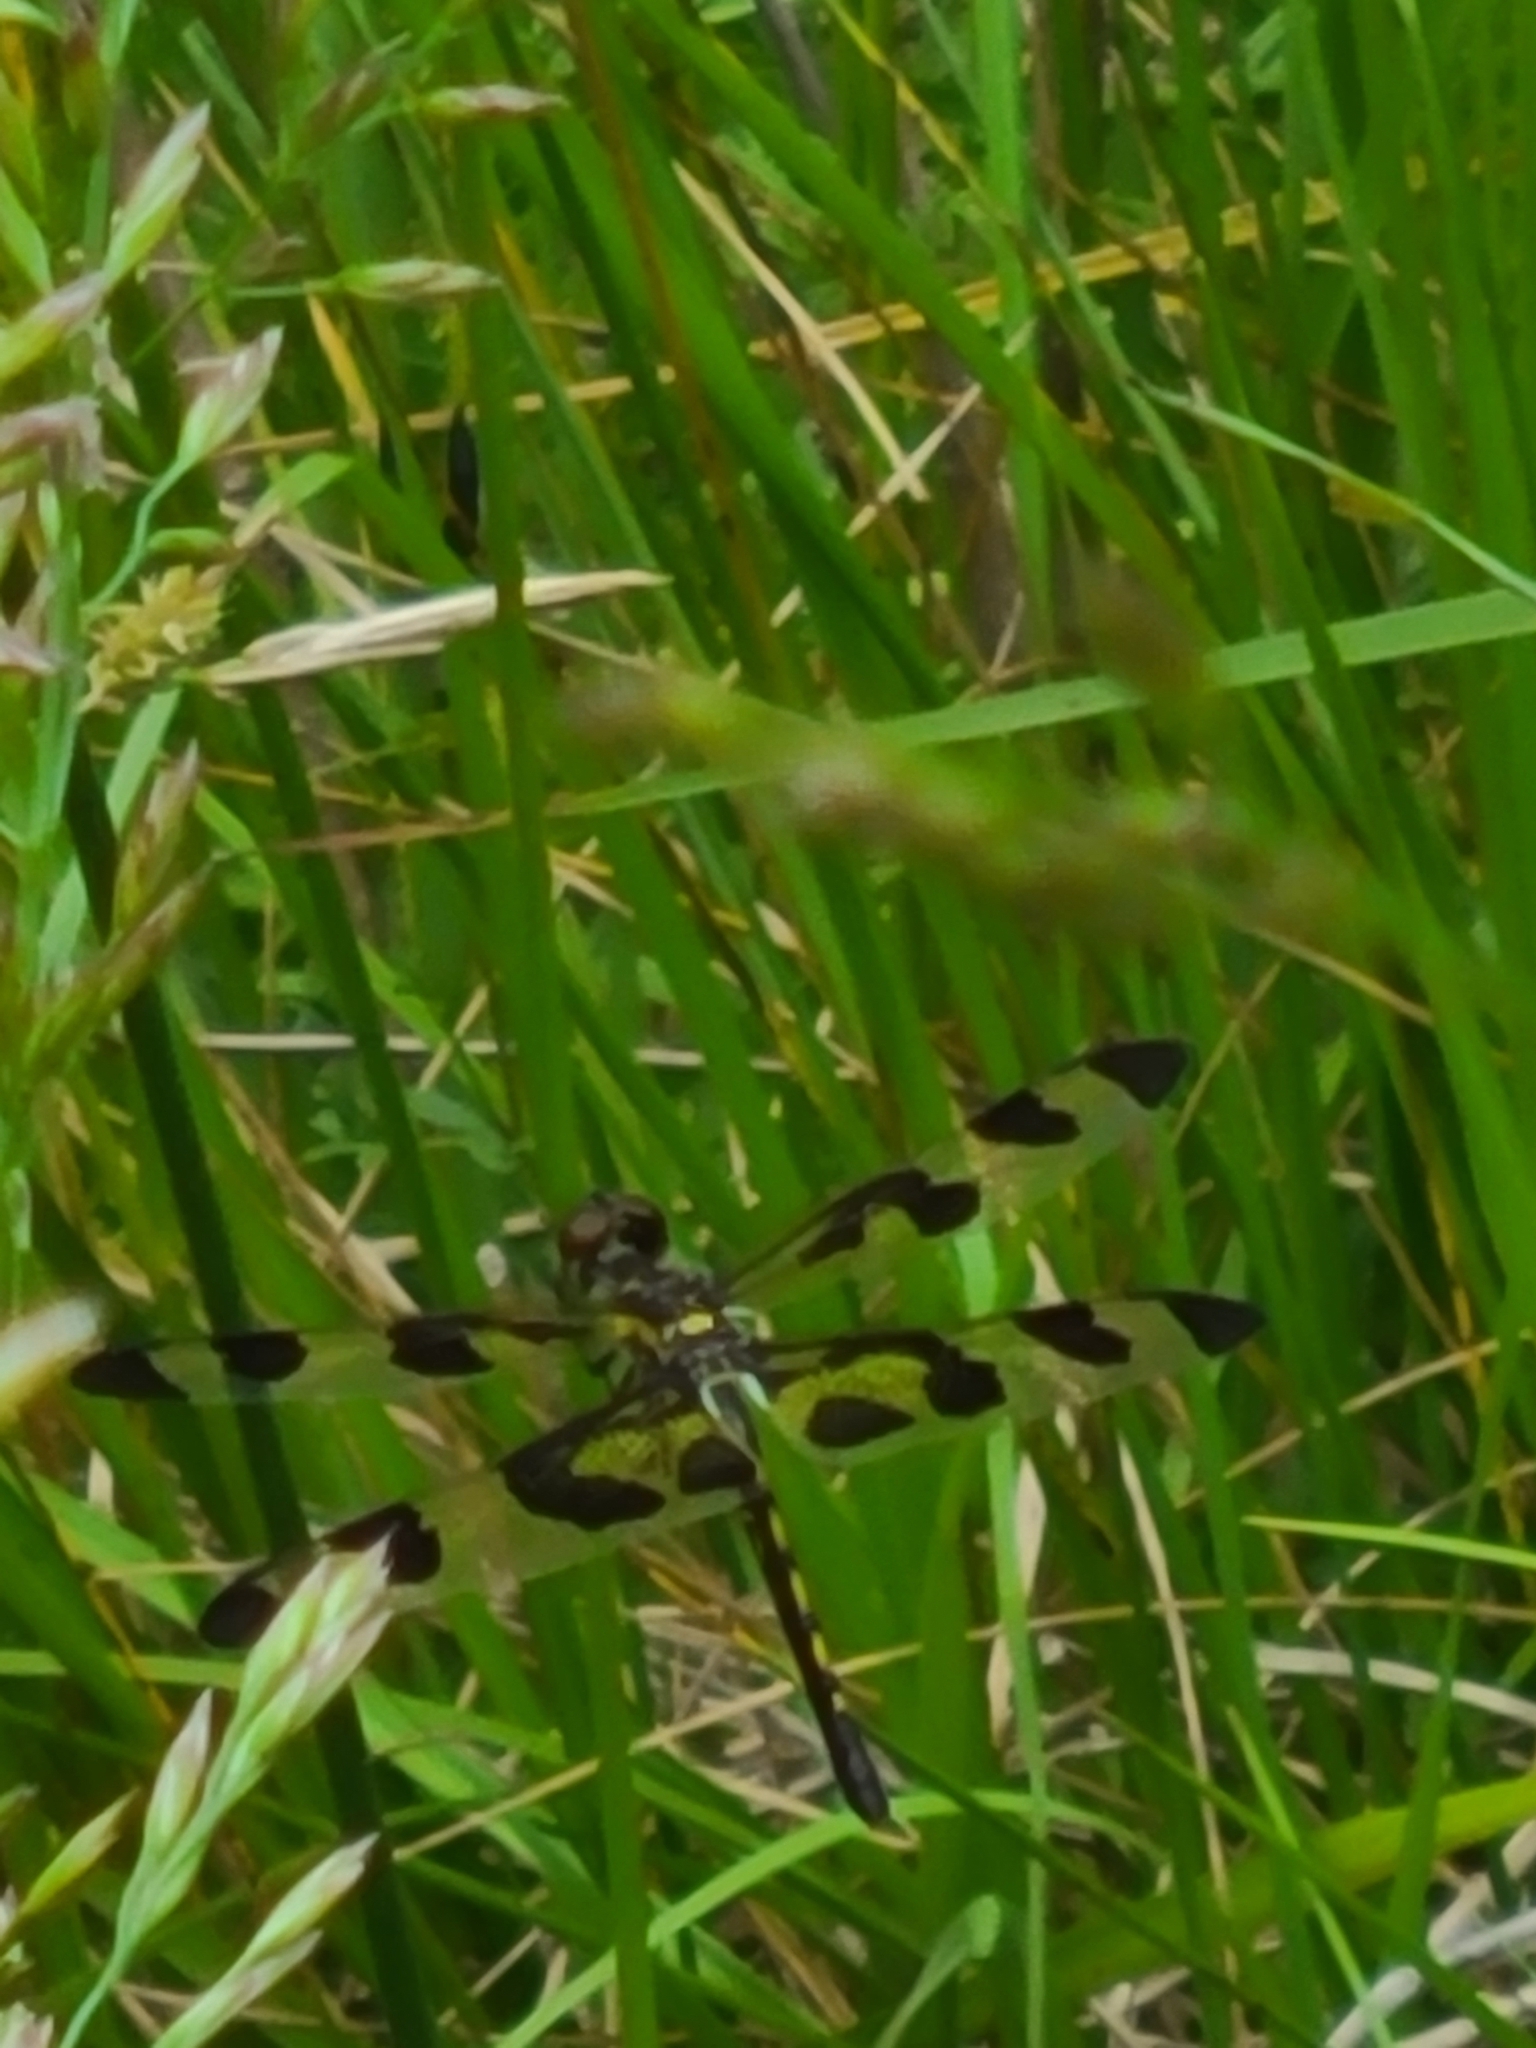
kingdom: Animalia
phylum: Arthropoda
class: Insecta
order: Odonata
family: Libellulidae
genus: Celithemis
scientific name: Celithemis fasciata
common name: Banded pennant
